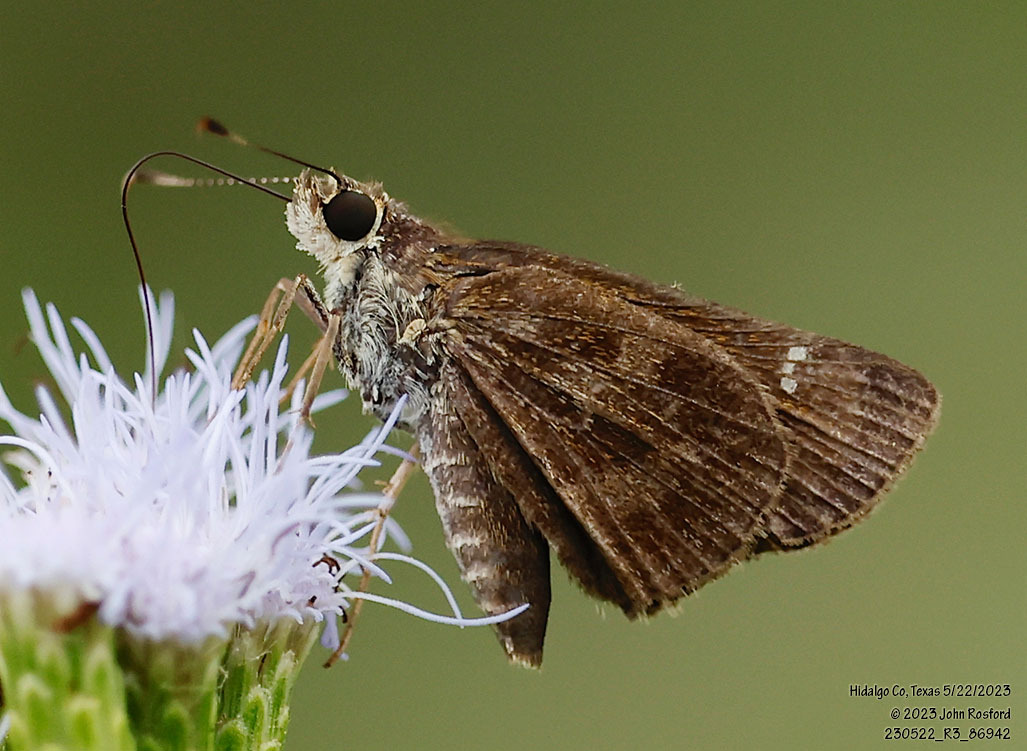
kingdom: Animalia
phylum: Arthropoda
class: Insecta
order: Lepidoptera
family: Hesperiidae
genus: Cymaenes
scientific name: Cymaenes
